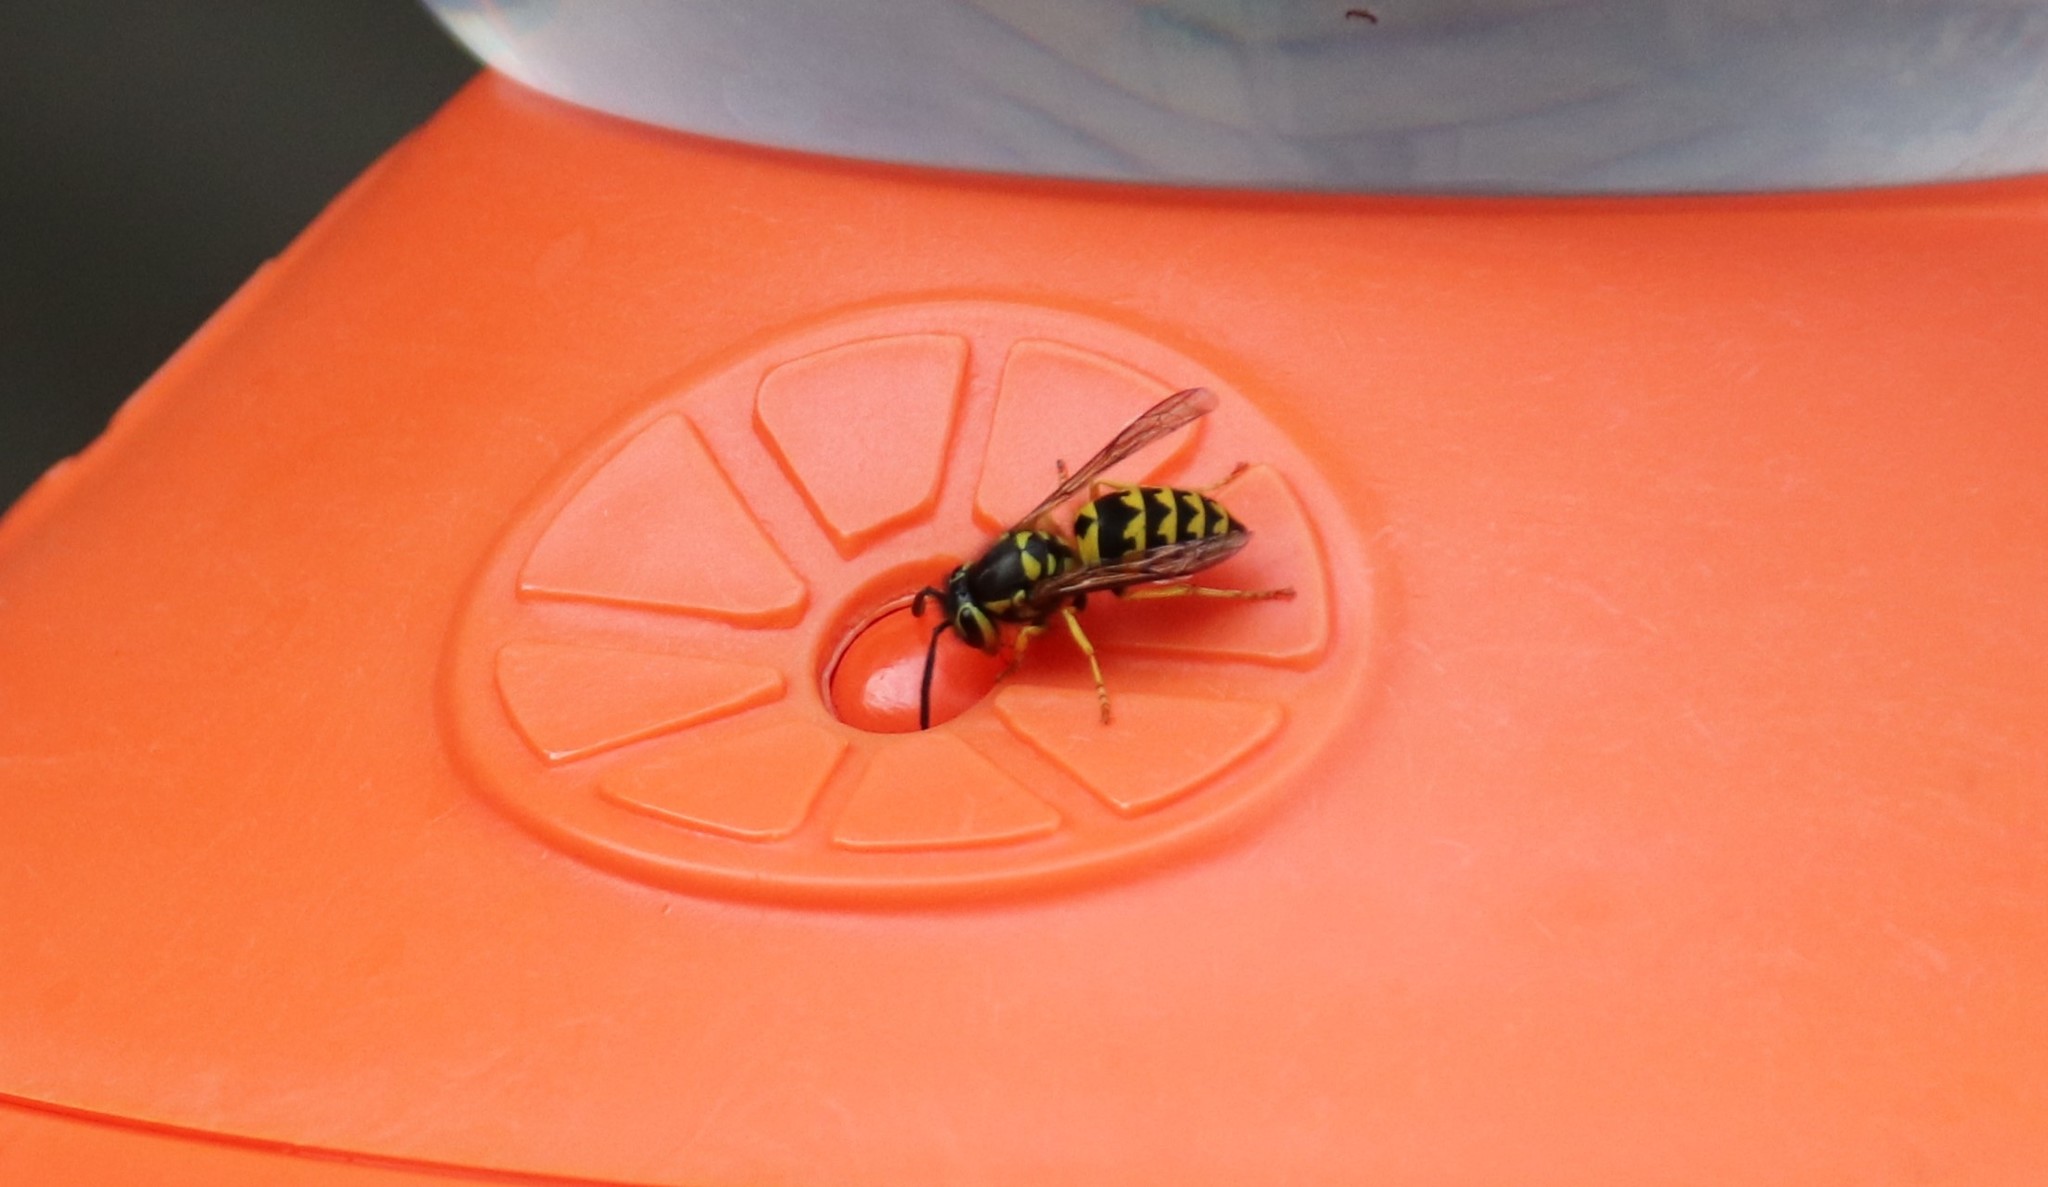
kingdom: Animalia
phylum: Arthropoda
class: Insecta
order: Hymenoptera
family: Vespidae
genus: Vespula
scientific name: Vespula pensylvanica
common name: Western yellowjacket
